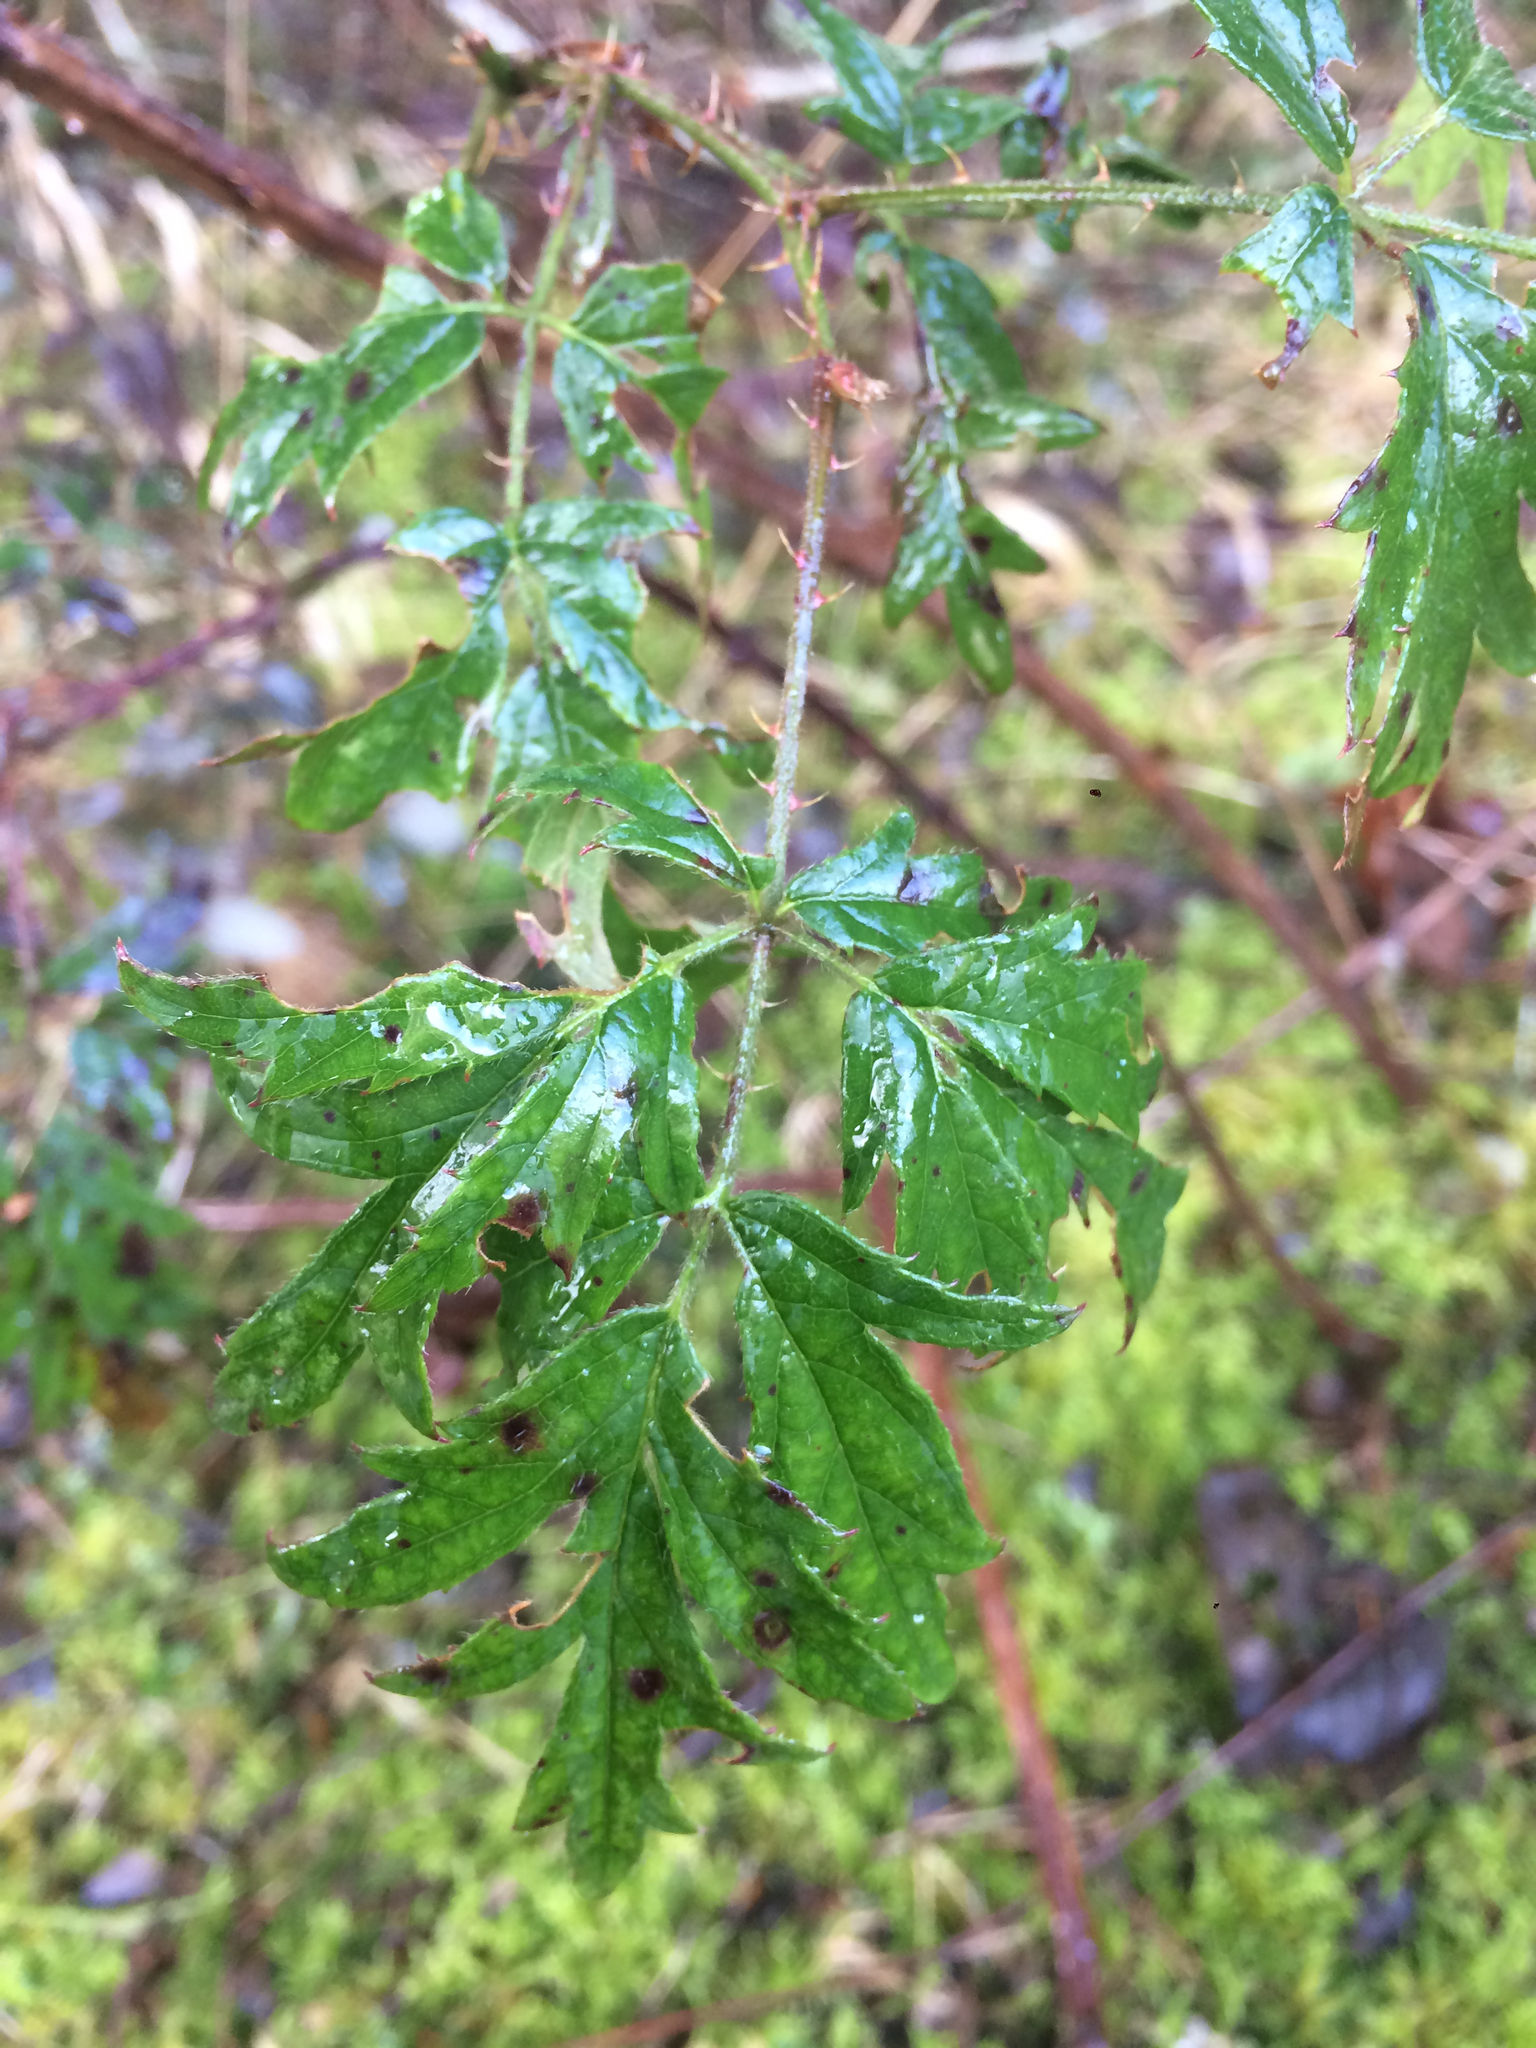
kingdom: Plantae
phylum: Tracheophyta
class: Magnoliopsida
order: Rosales
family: Rosaceae
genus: Rubus
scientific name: Rubus laciniatus
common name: Evergreen blackberry
